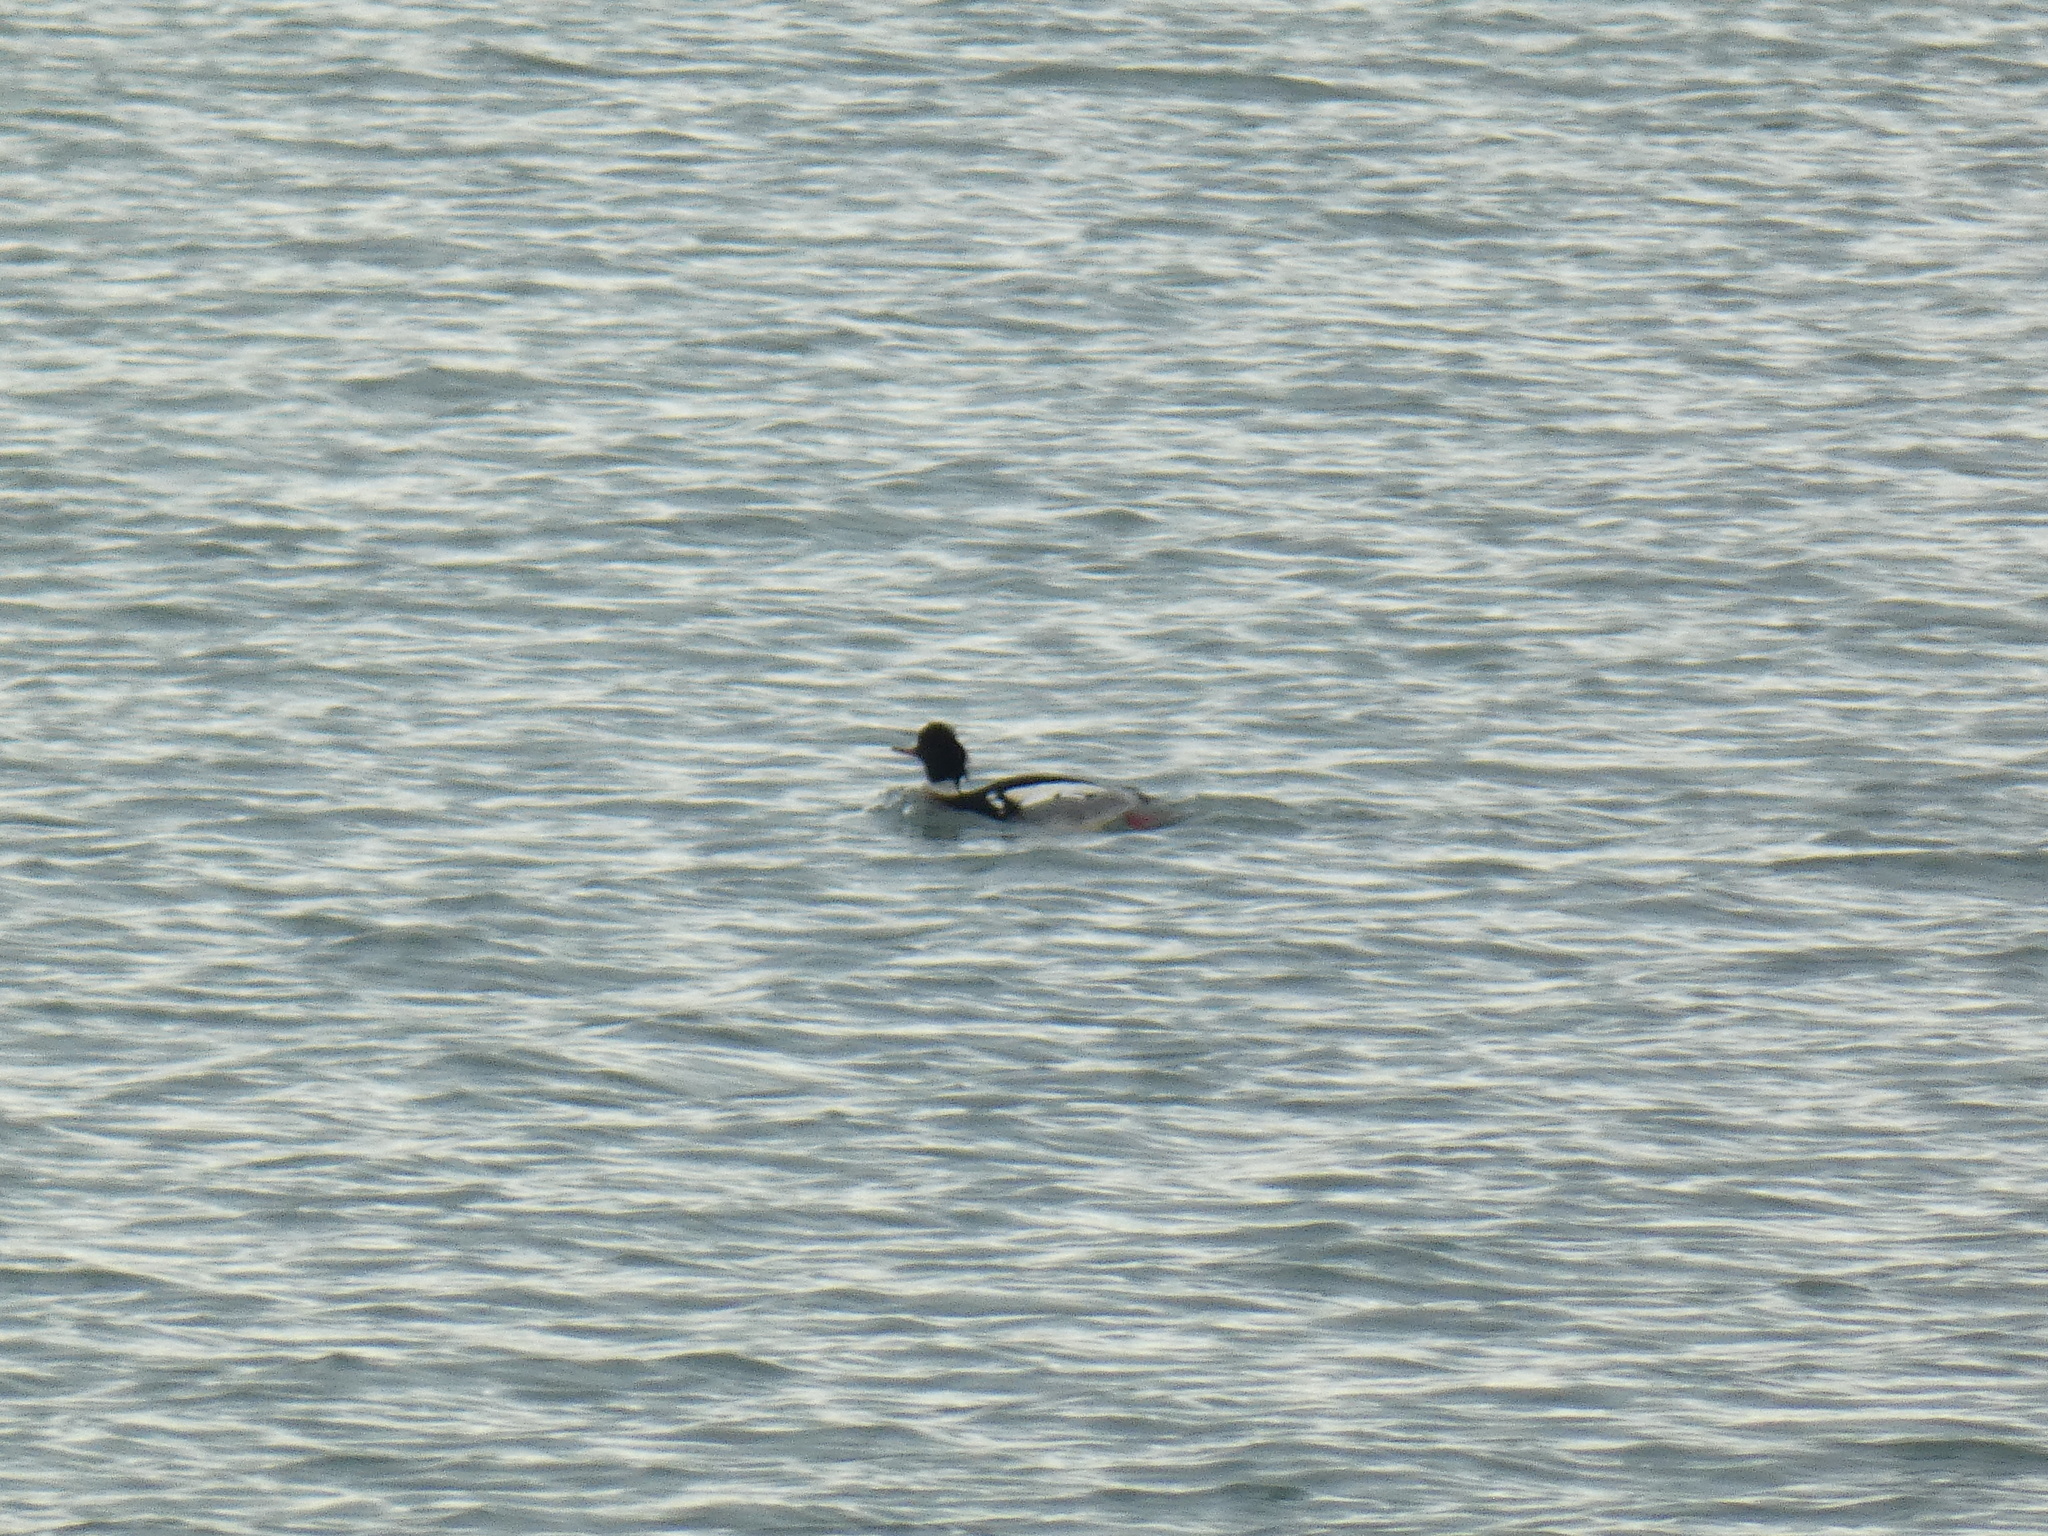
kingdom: Animalia
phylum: Chordata
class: Aves
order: Anseriformes
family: Anatidae
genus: Mergus
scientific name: Mergus serrator
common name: Red-breasted merganser
